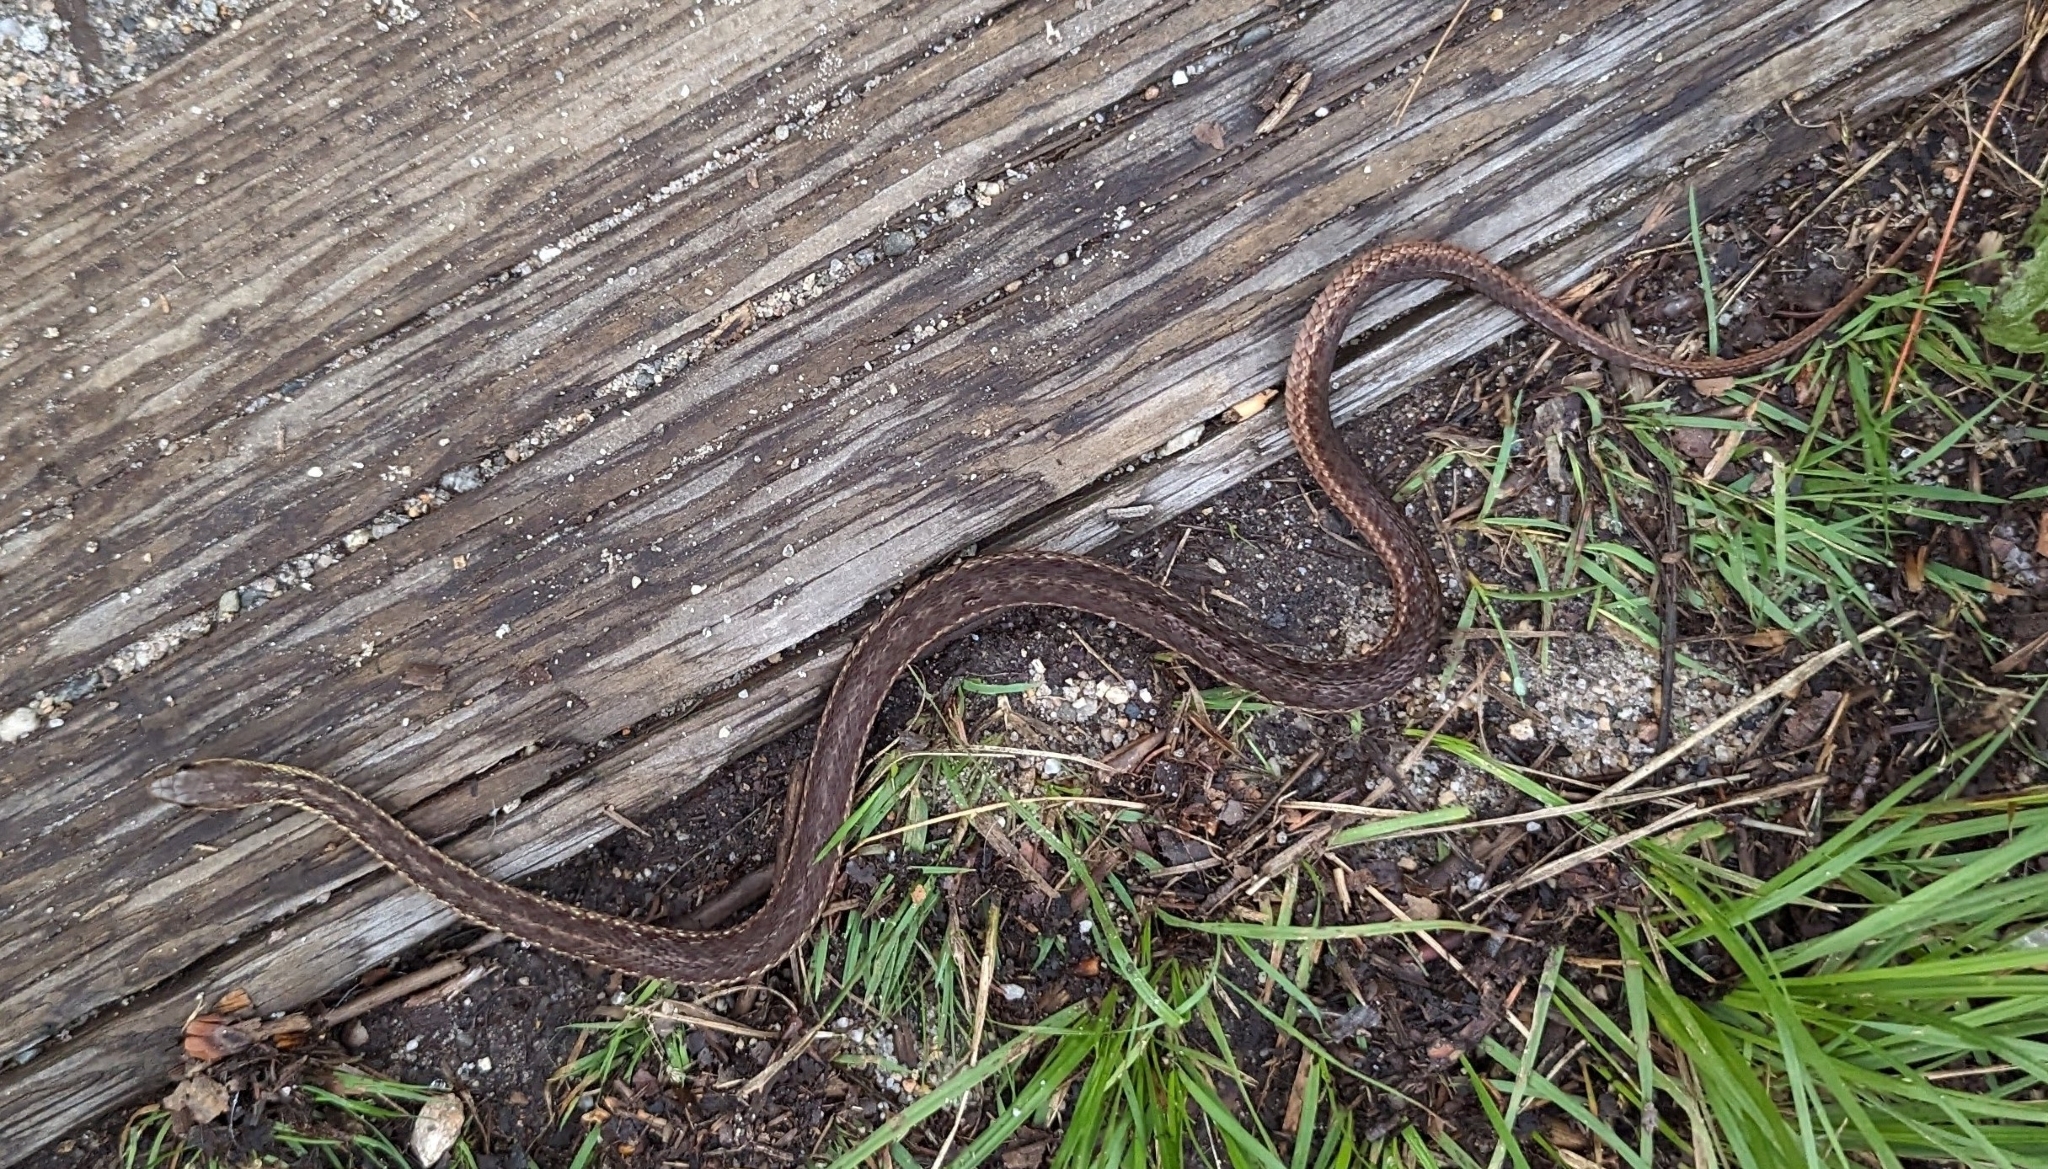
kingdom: Animalia
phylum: Chordata
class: Squamata
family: Colubridae
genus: Thamnophis
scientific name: Thamnophis sirtalis
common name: Common garter snake
